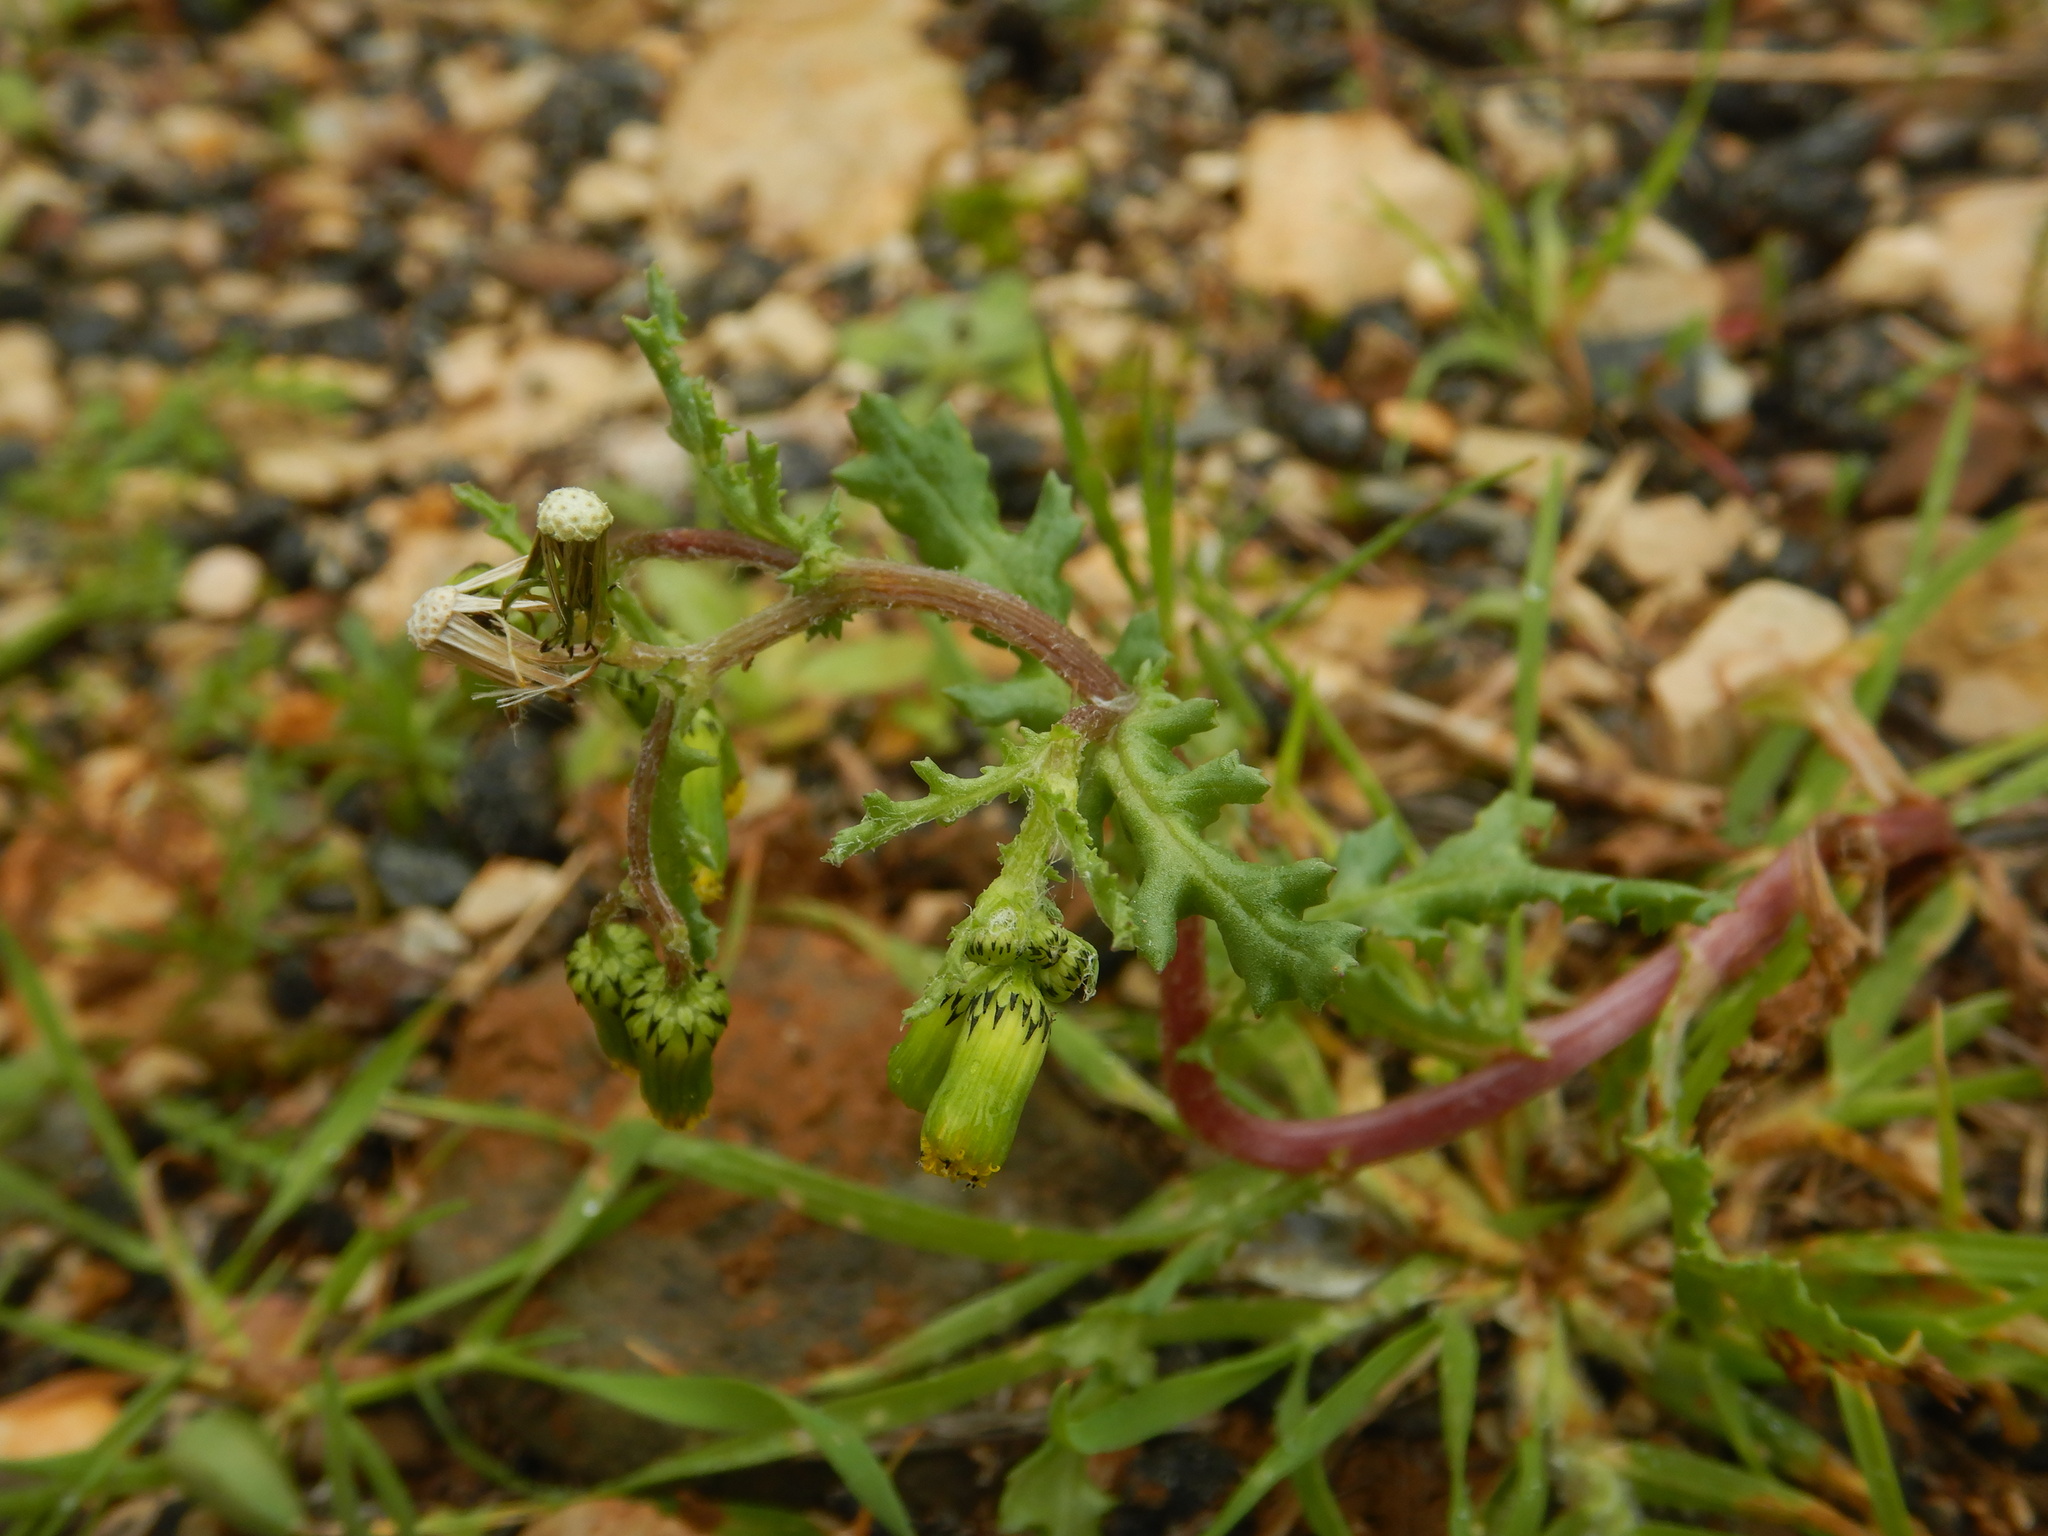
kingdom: Plantae
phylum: Tracheophyta
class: Magnoliopsida
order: Asterales
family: Asteraceae
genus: Senecio
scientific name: Senecio vulgaris
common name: Old-man-in-the-spring
